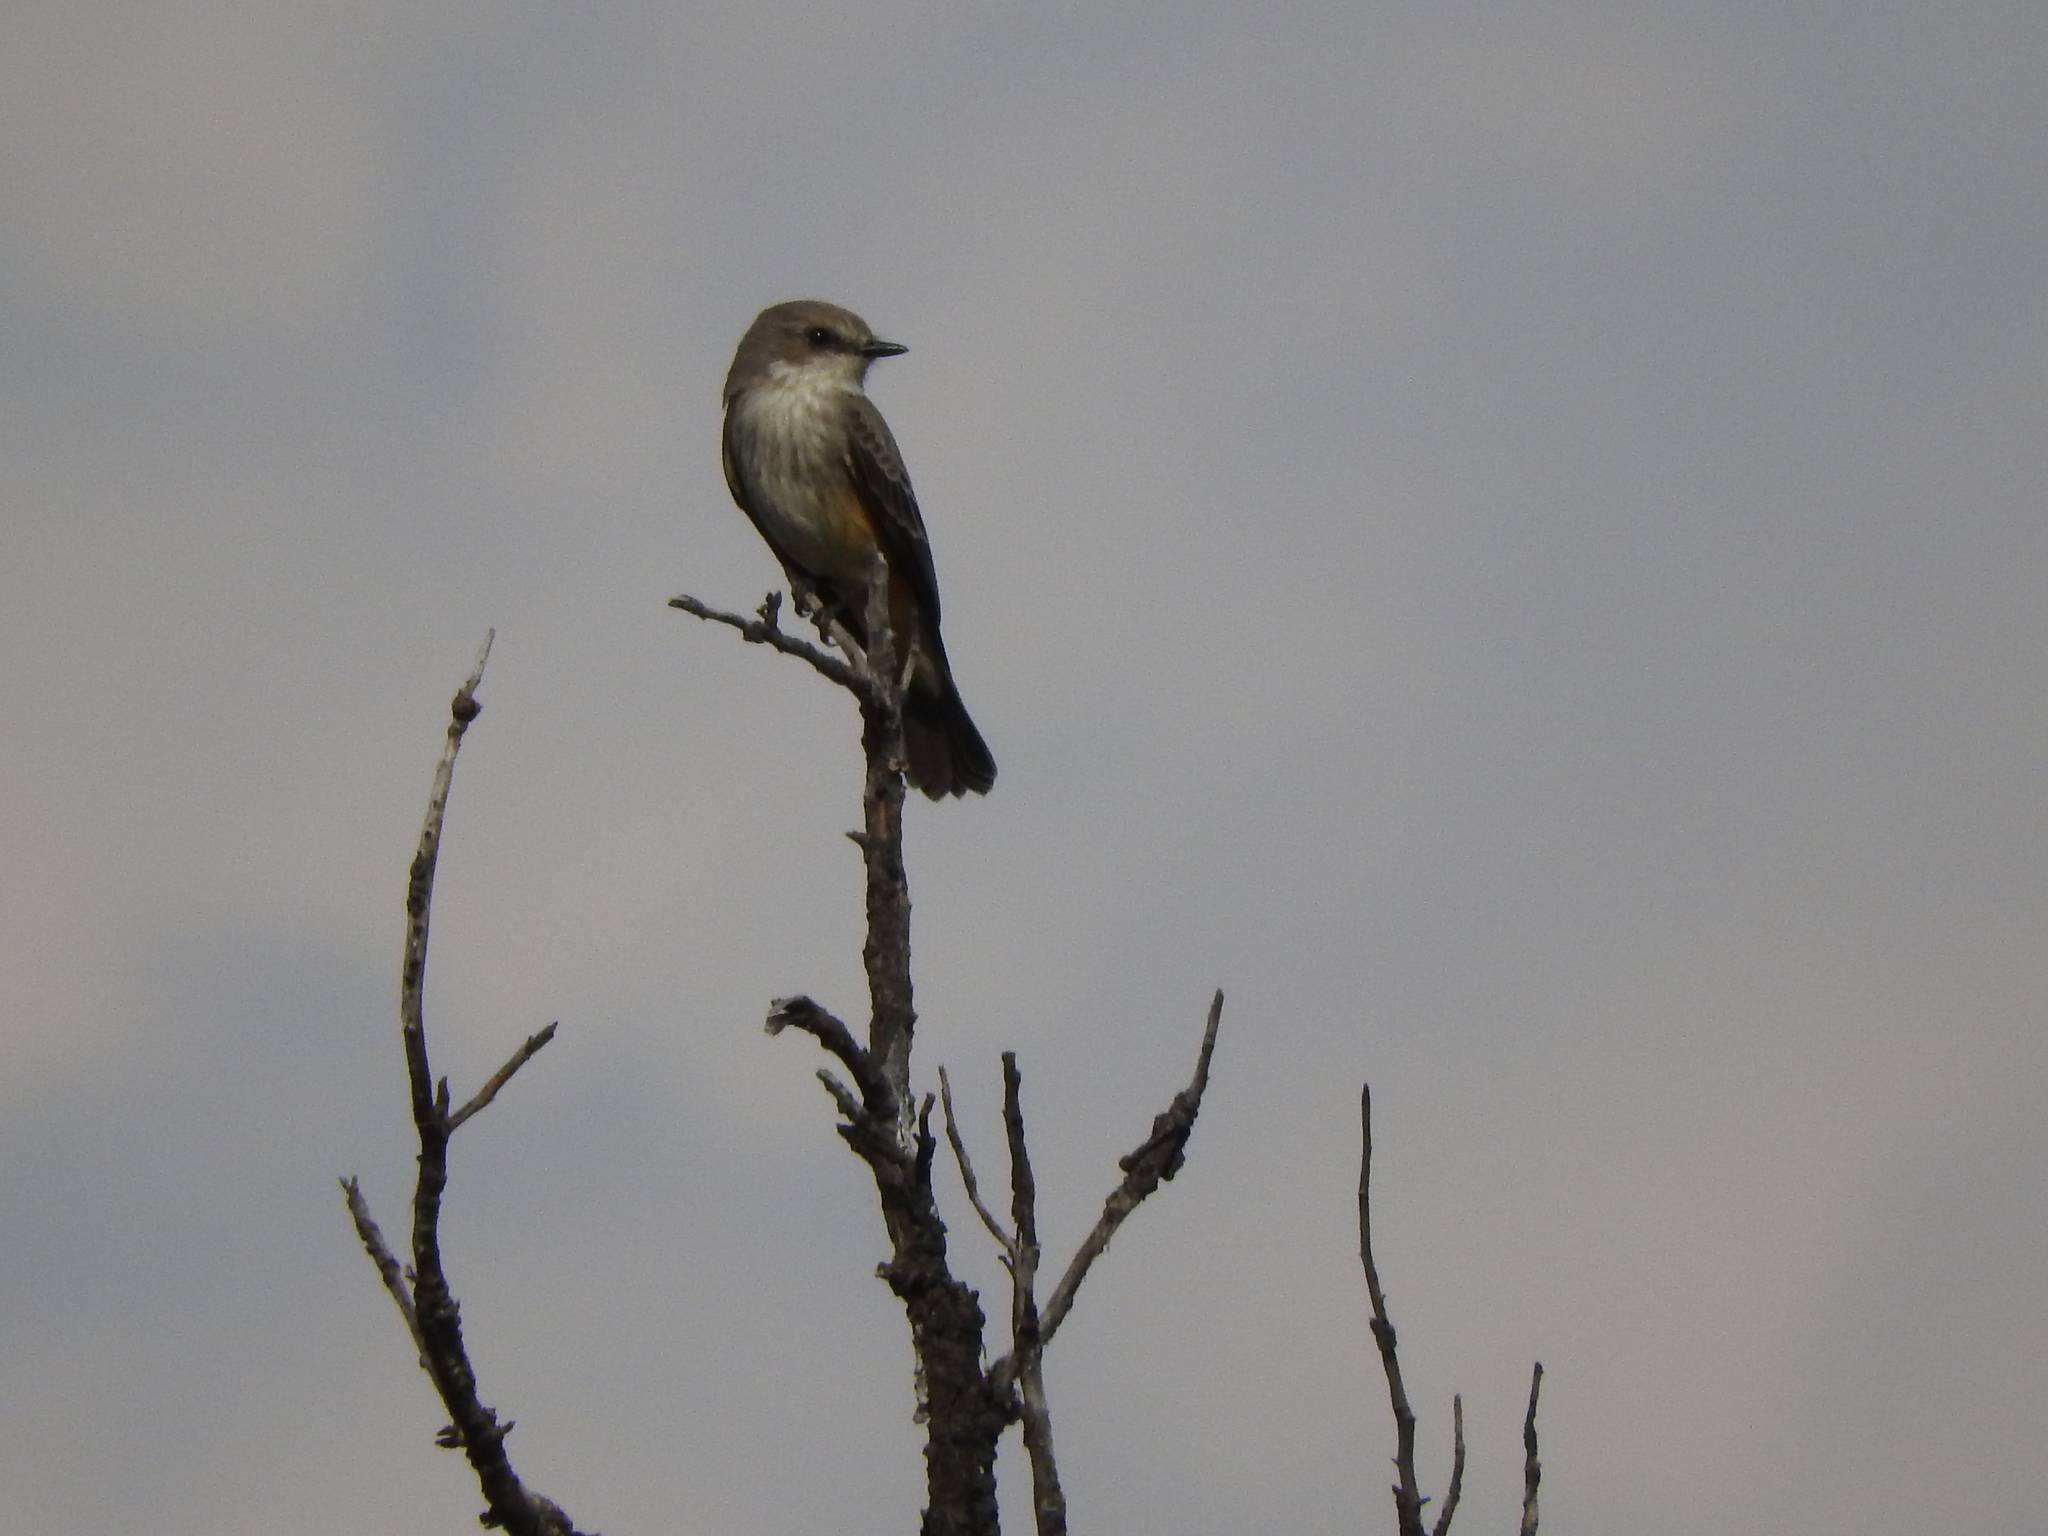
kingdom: Animalia
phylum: Chordata
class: Aves
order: Passeriformes
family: Tyrannidae
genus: Pyrocephalus
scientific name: Pyrocephalus rubinus
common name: Vermilion flycatcher
